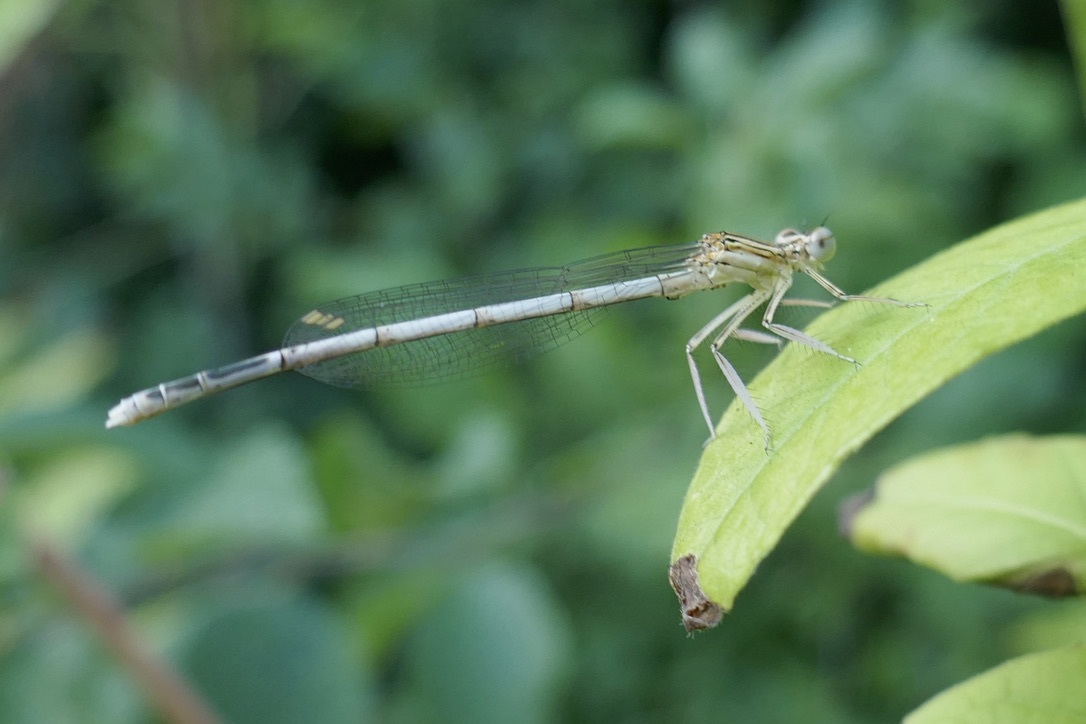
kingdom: Animalia
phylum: Arthropoda
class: Insecta
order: Odonata
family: Platycnemididae
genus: Platycnemis
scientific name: Platycnemis pennipes
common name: White-legged damselfly
